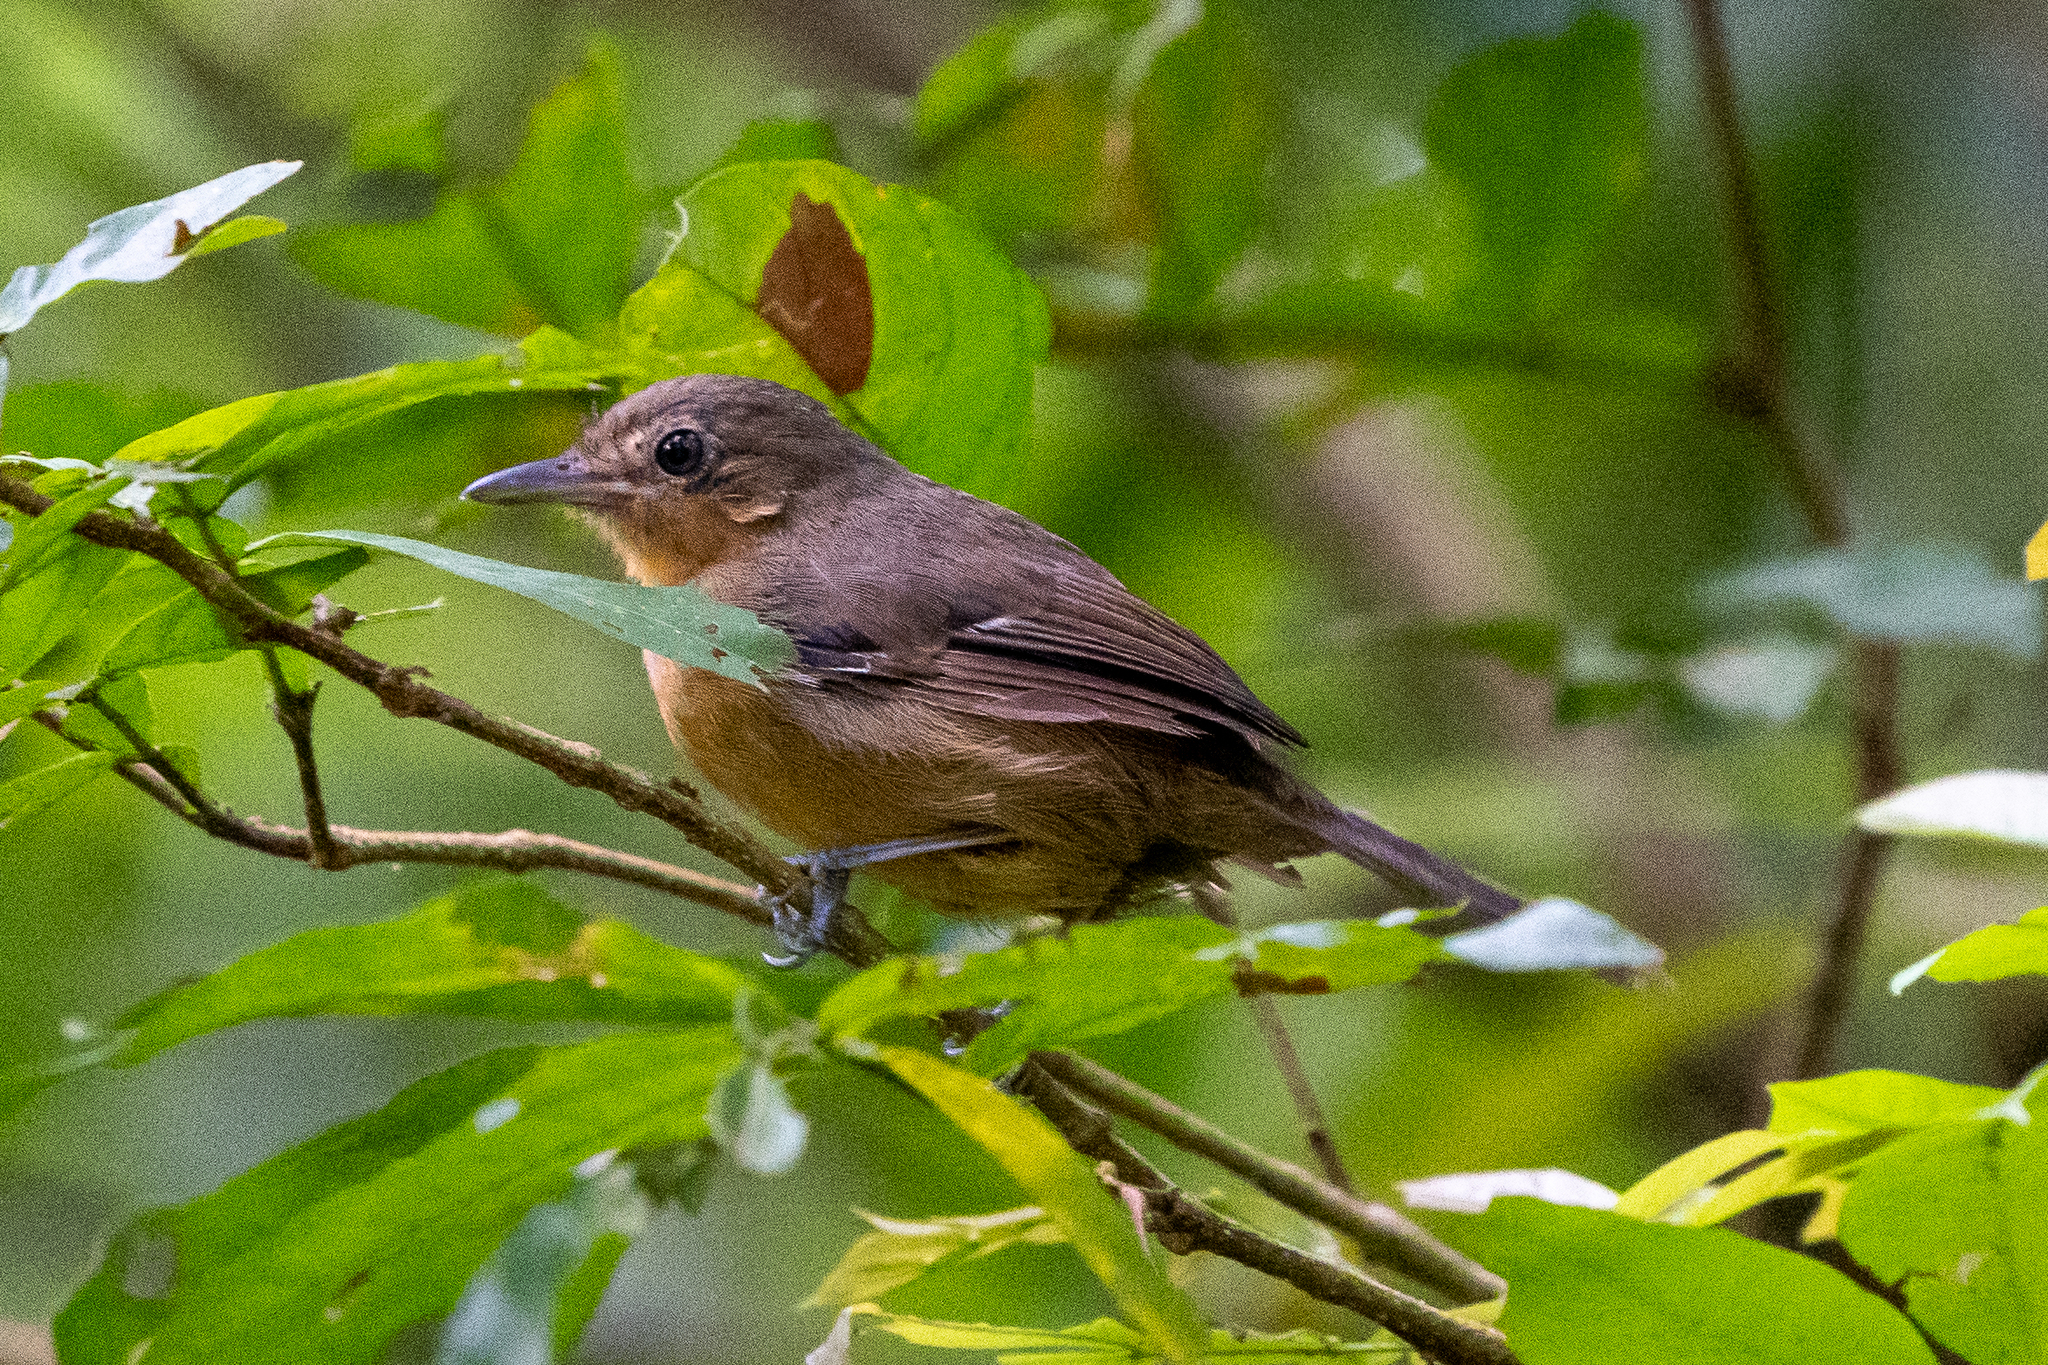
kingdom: Animalia
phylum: Chordata
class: Aves
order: Passeriformes
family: Thamnophilidae
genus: Cercomacra
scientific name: Cercomacra tyrannina
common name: Dusky antbird
